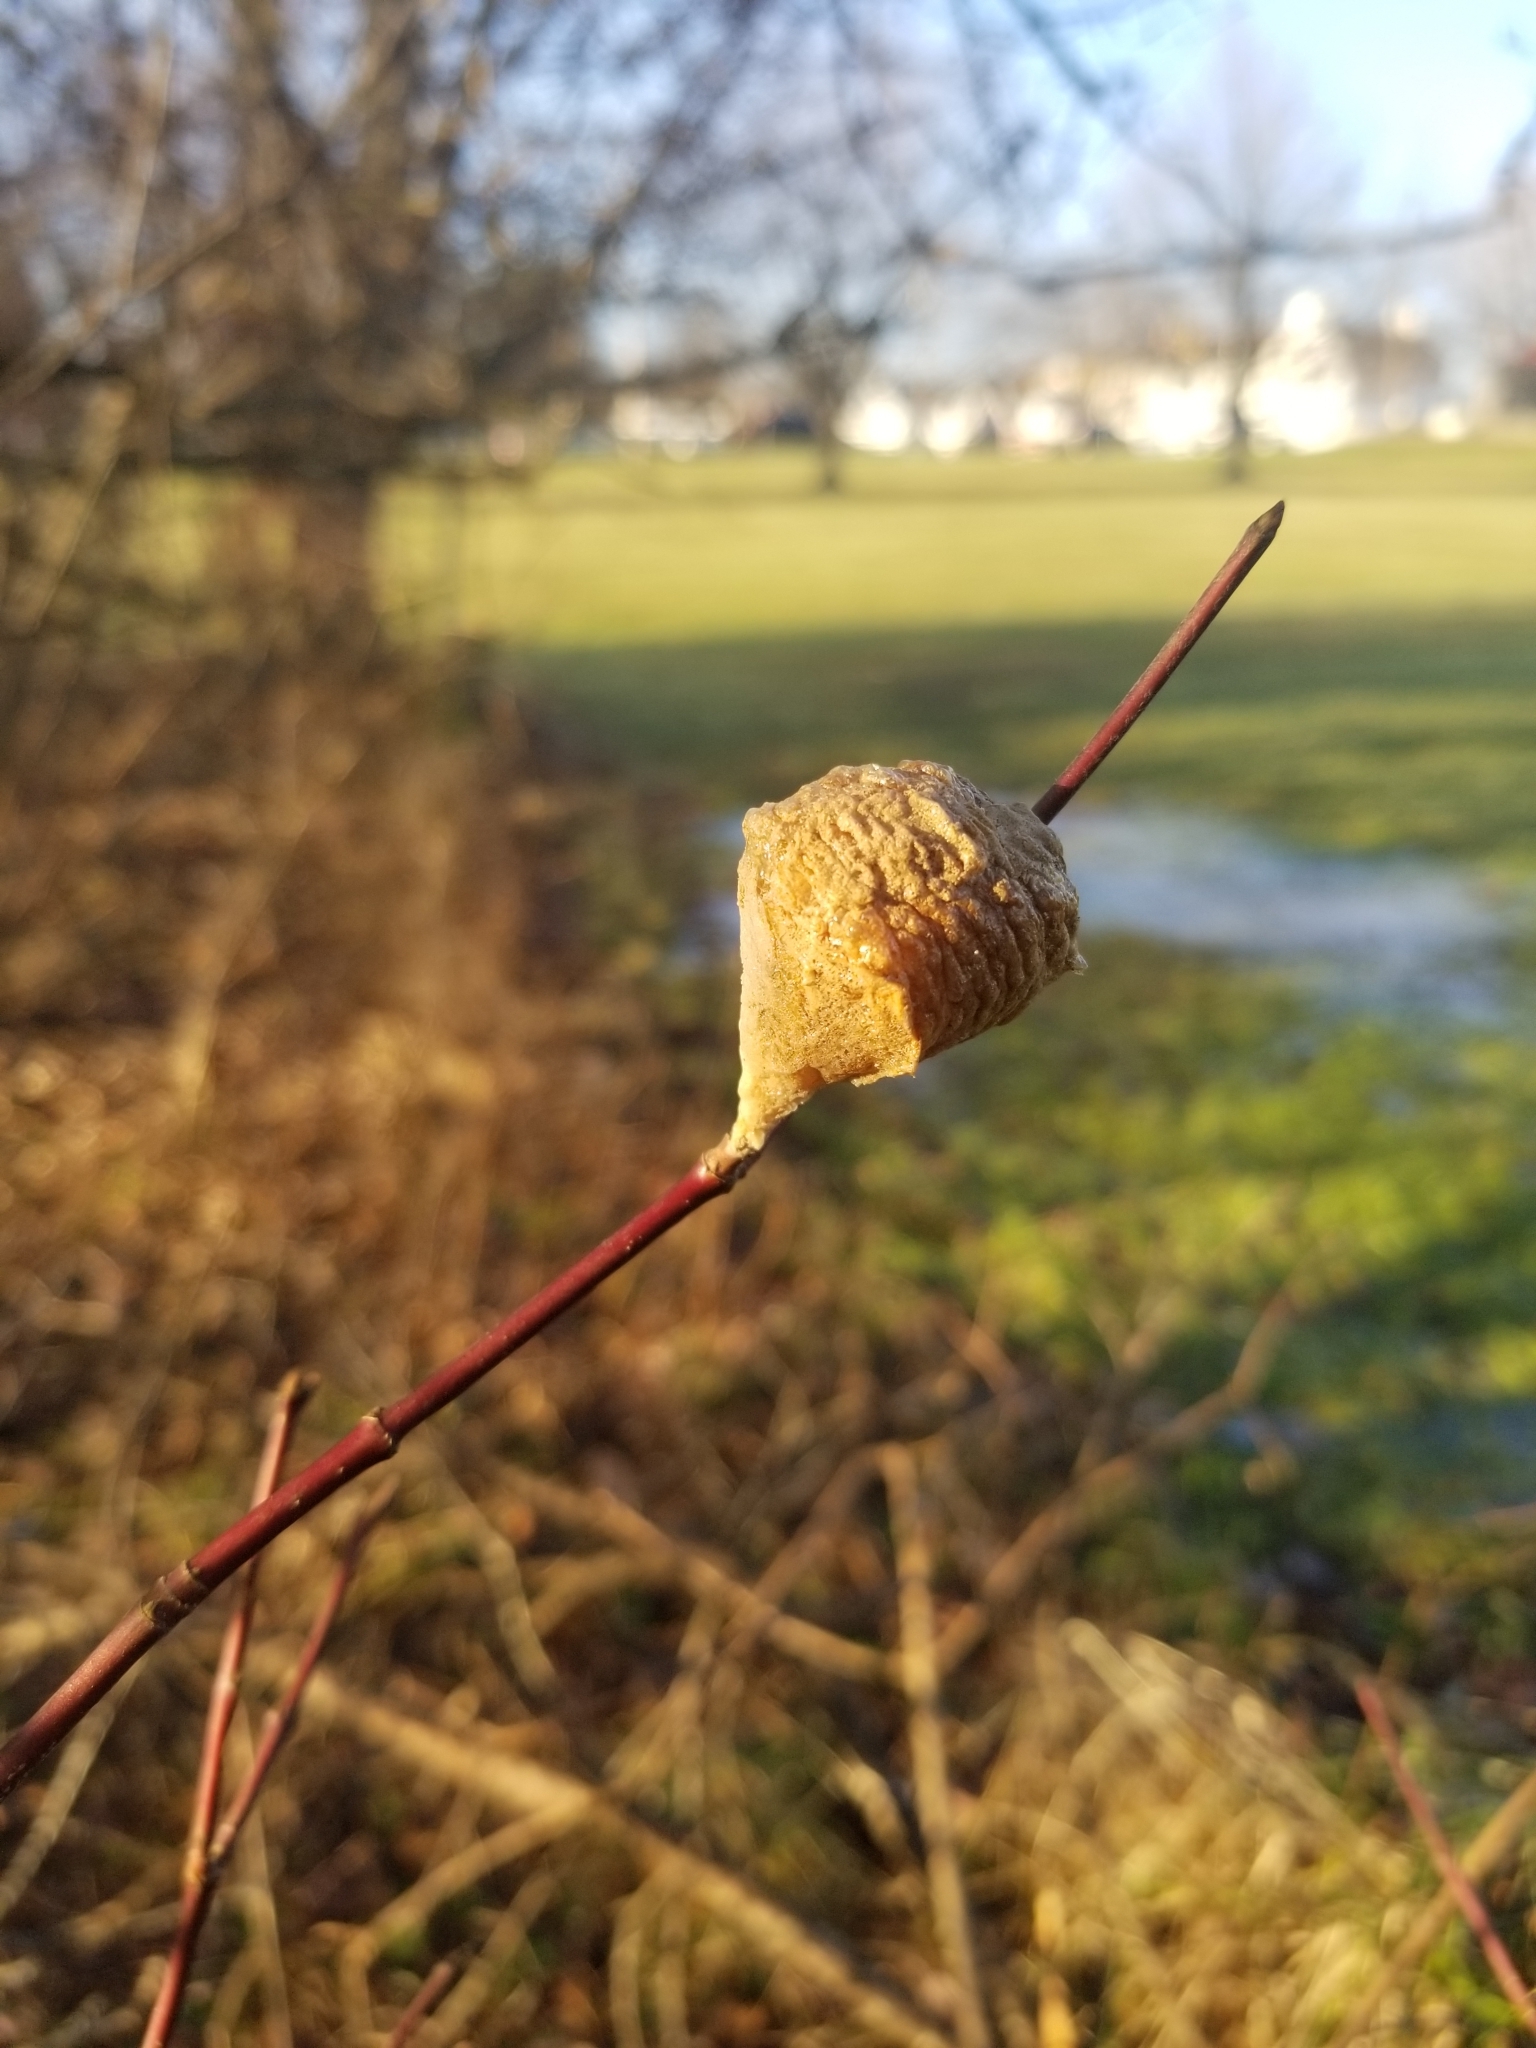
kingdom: Animalia
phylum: Arthropoda
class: Insecta
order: Mantodea
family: Mantidae
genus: Tenodera
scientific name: Tenodera sinensis
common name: Chinese mantis
